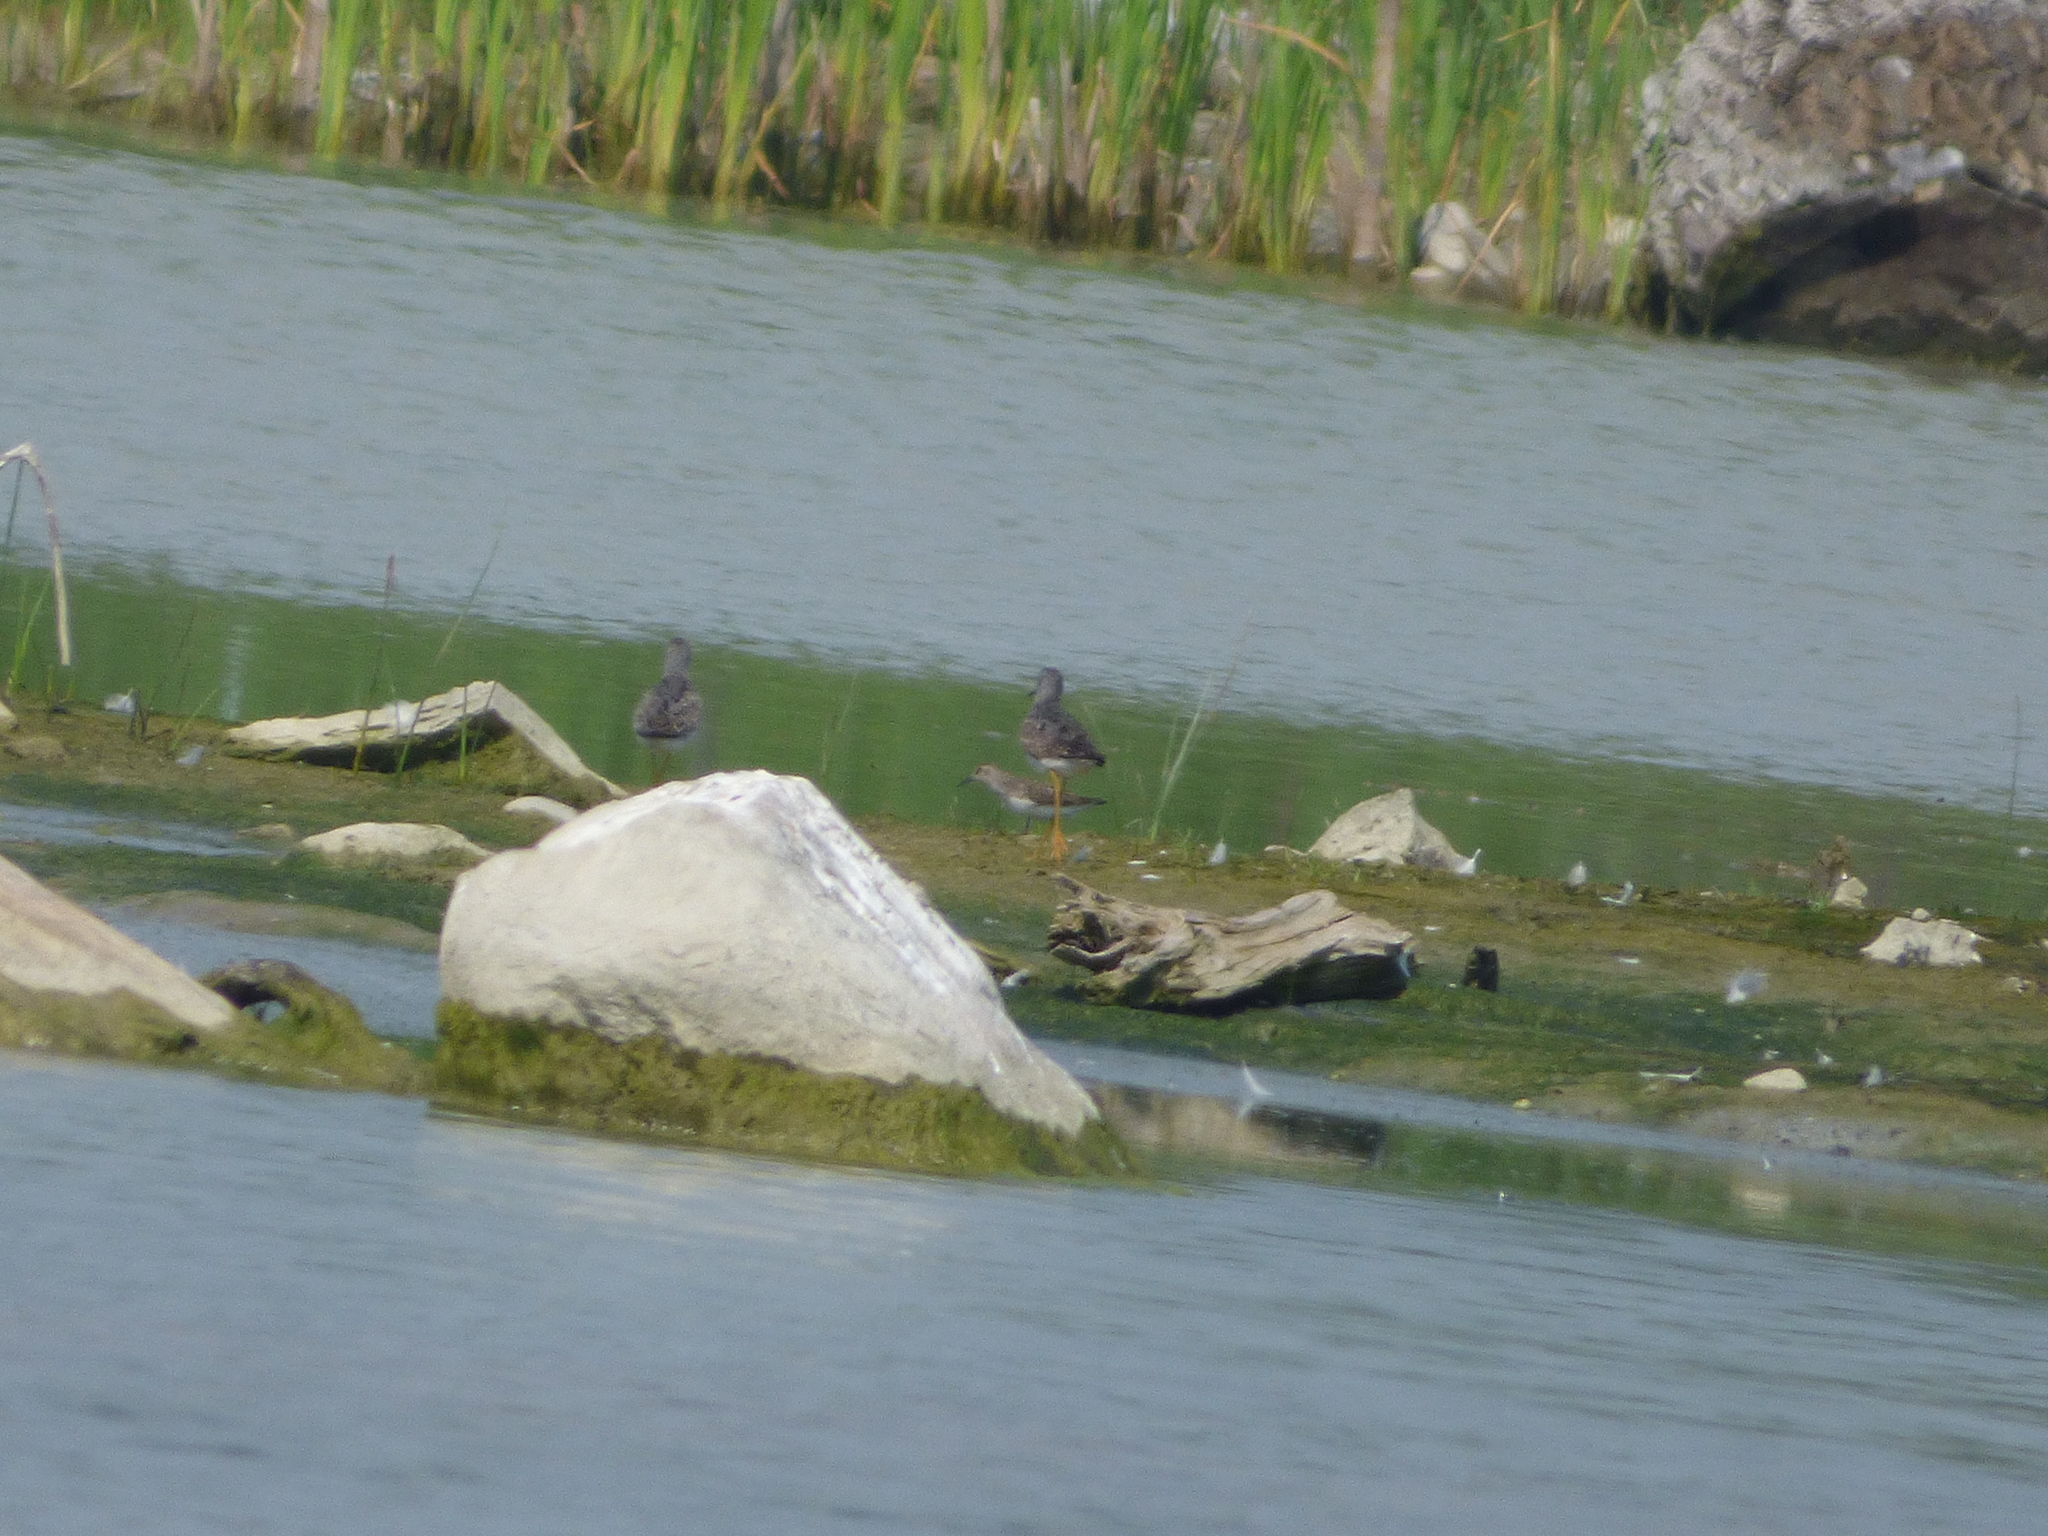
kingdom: Animalia
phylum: Chordata
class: Aves
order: Charadriiformes
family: Scolopacidae
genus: Tringa
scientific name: Tringa flavipes
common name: Lesser yellowlegs
